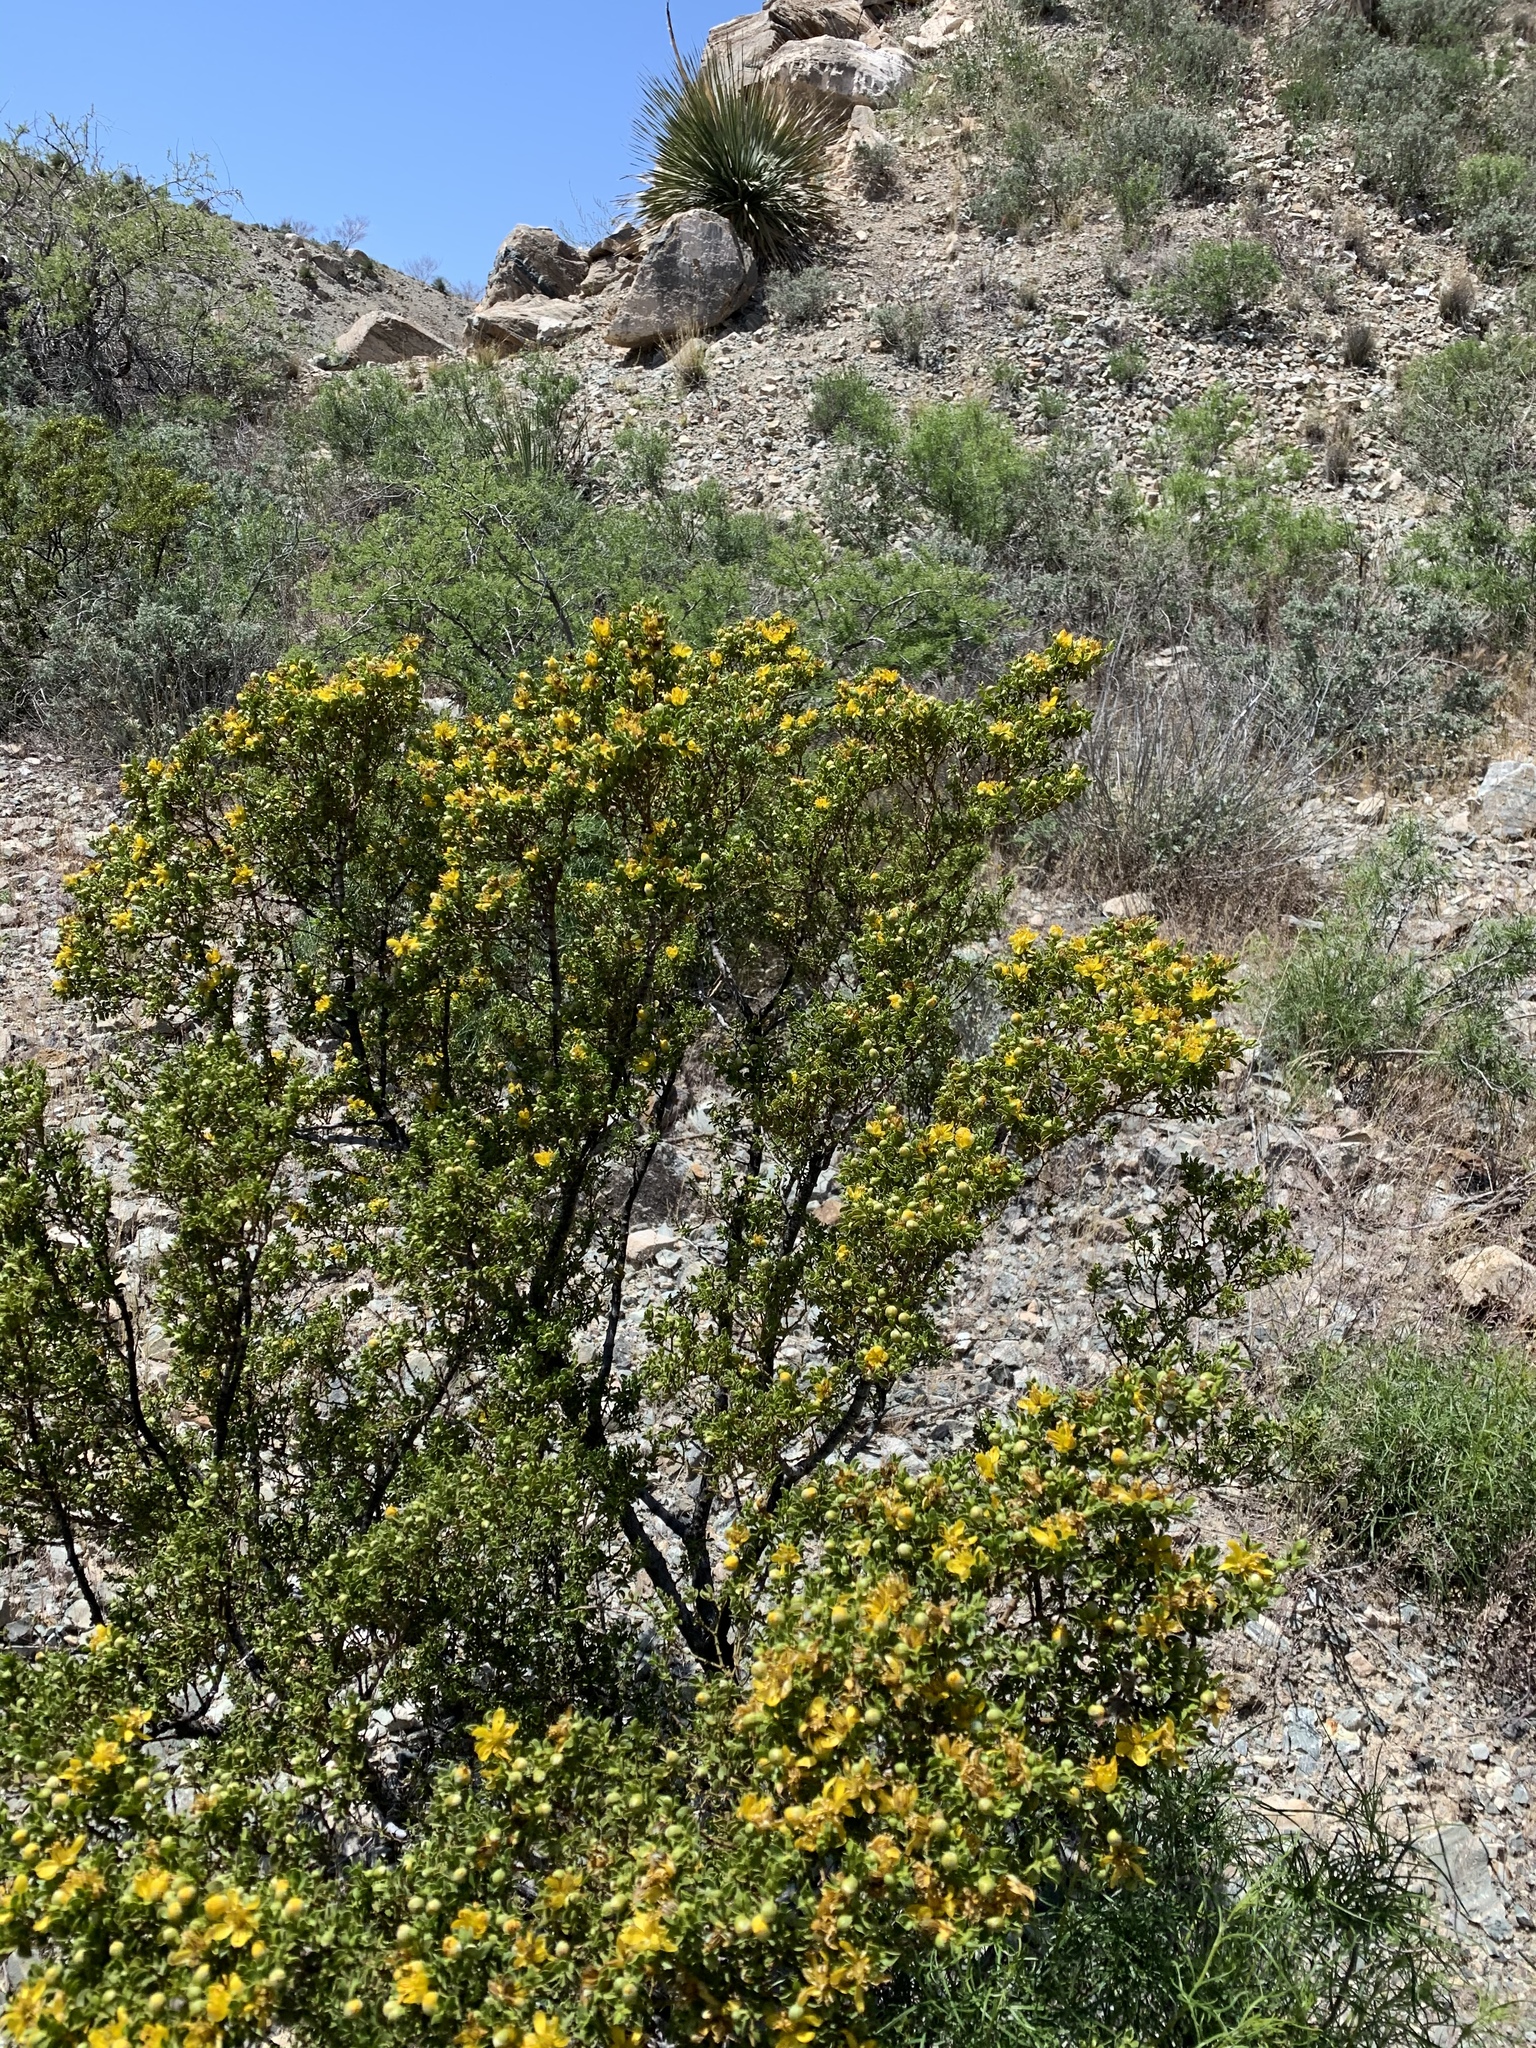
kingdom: Plantae
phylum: Tracheophyta
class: Magnoliopsida
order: Zygophyllales
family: Zygophyllaceae
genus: Larrea
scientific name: Larrea tridentata
